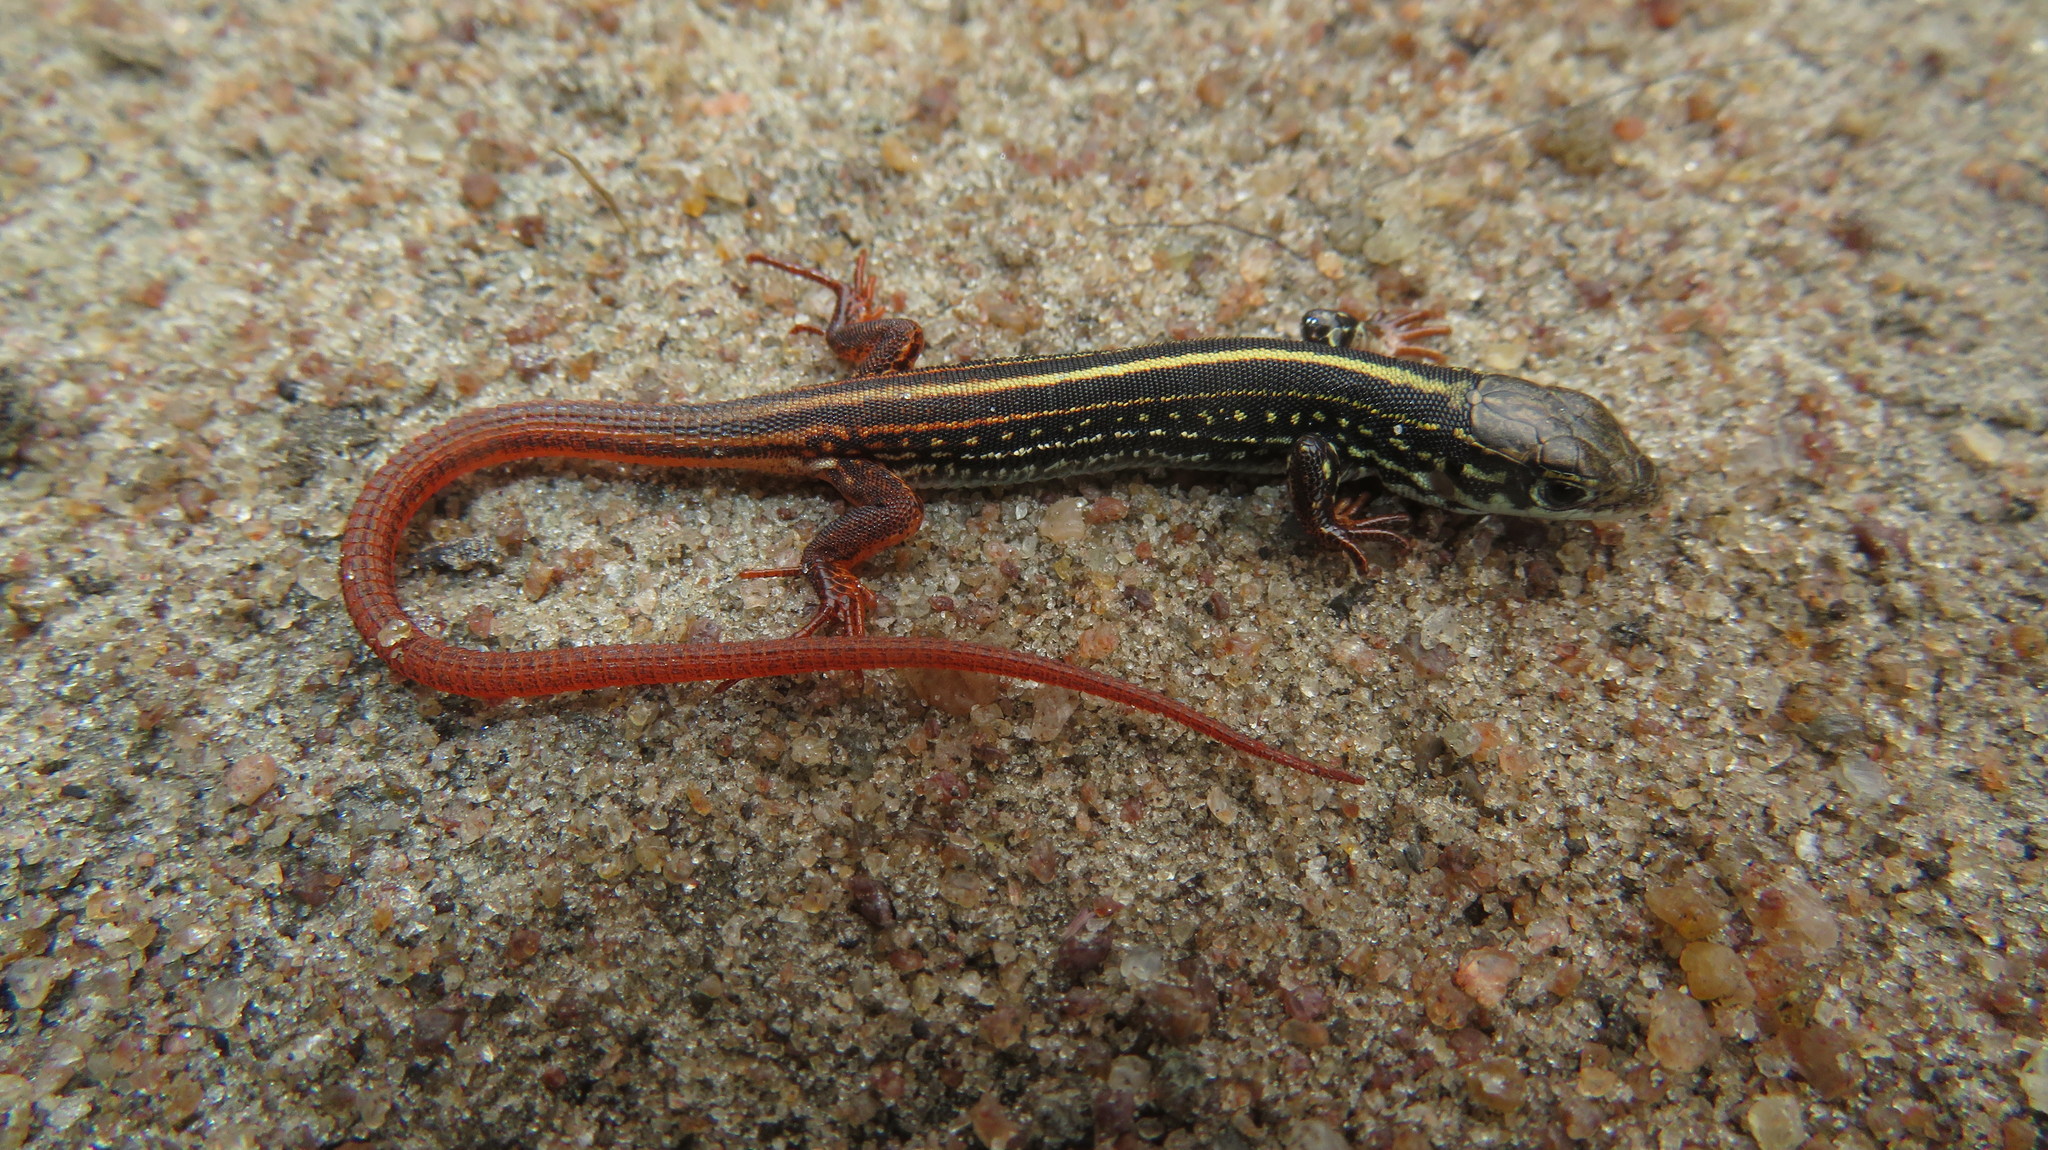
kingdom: Animalia
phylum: Chordata
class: Squamata
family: Lacertidae
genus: Nucras
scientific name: Nucras boulengeri
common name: Boulenger’s scrub lizard
